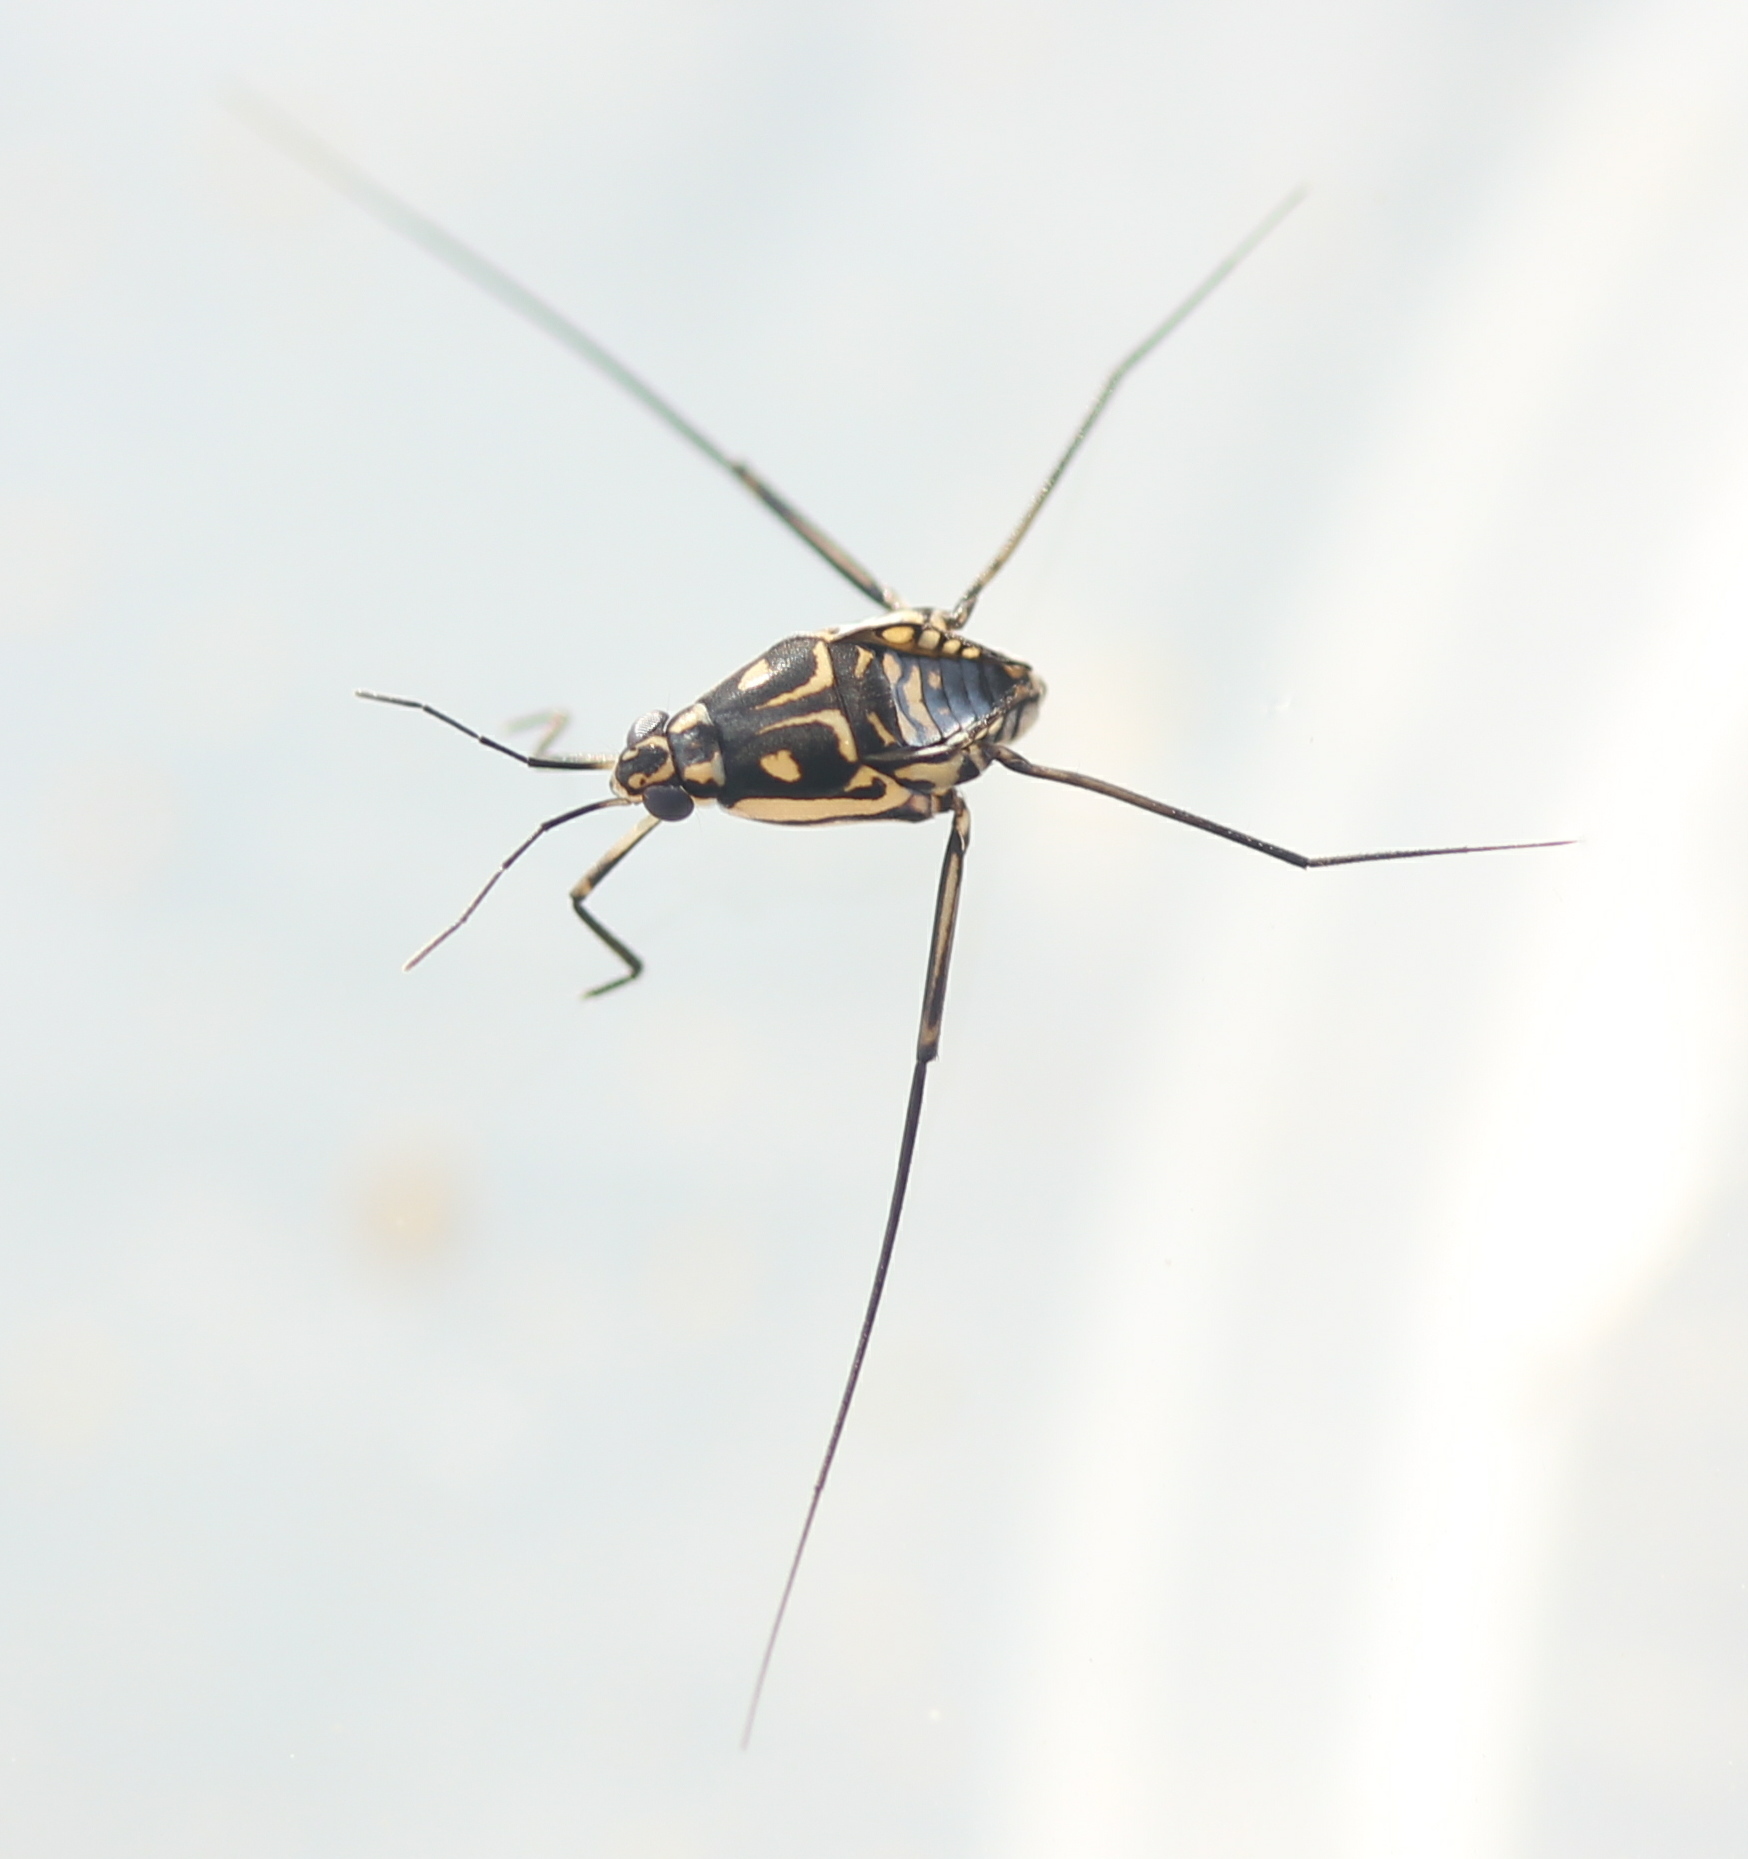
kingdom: Animalia
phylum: Arthropoda
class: Insecta
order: Hemiptera
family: Gerridae
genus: Trepobates
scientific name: Trepobates subnitidus
